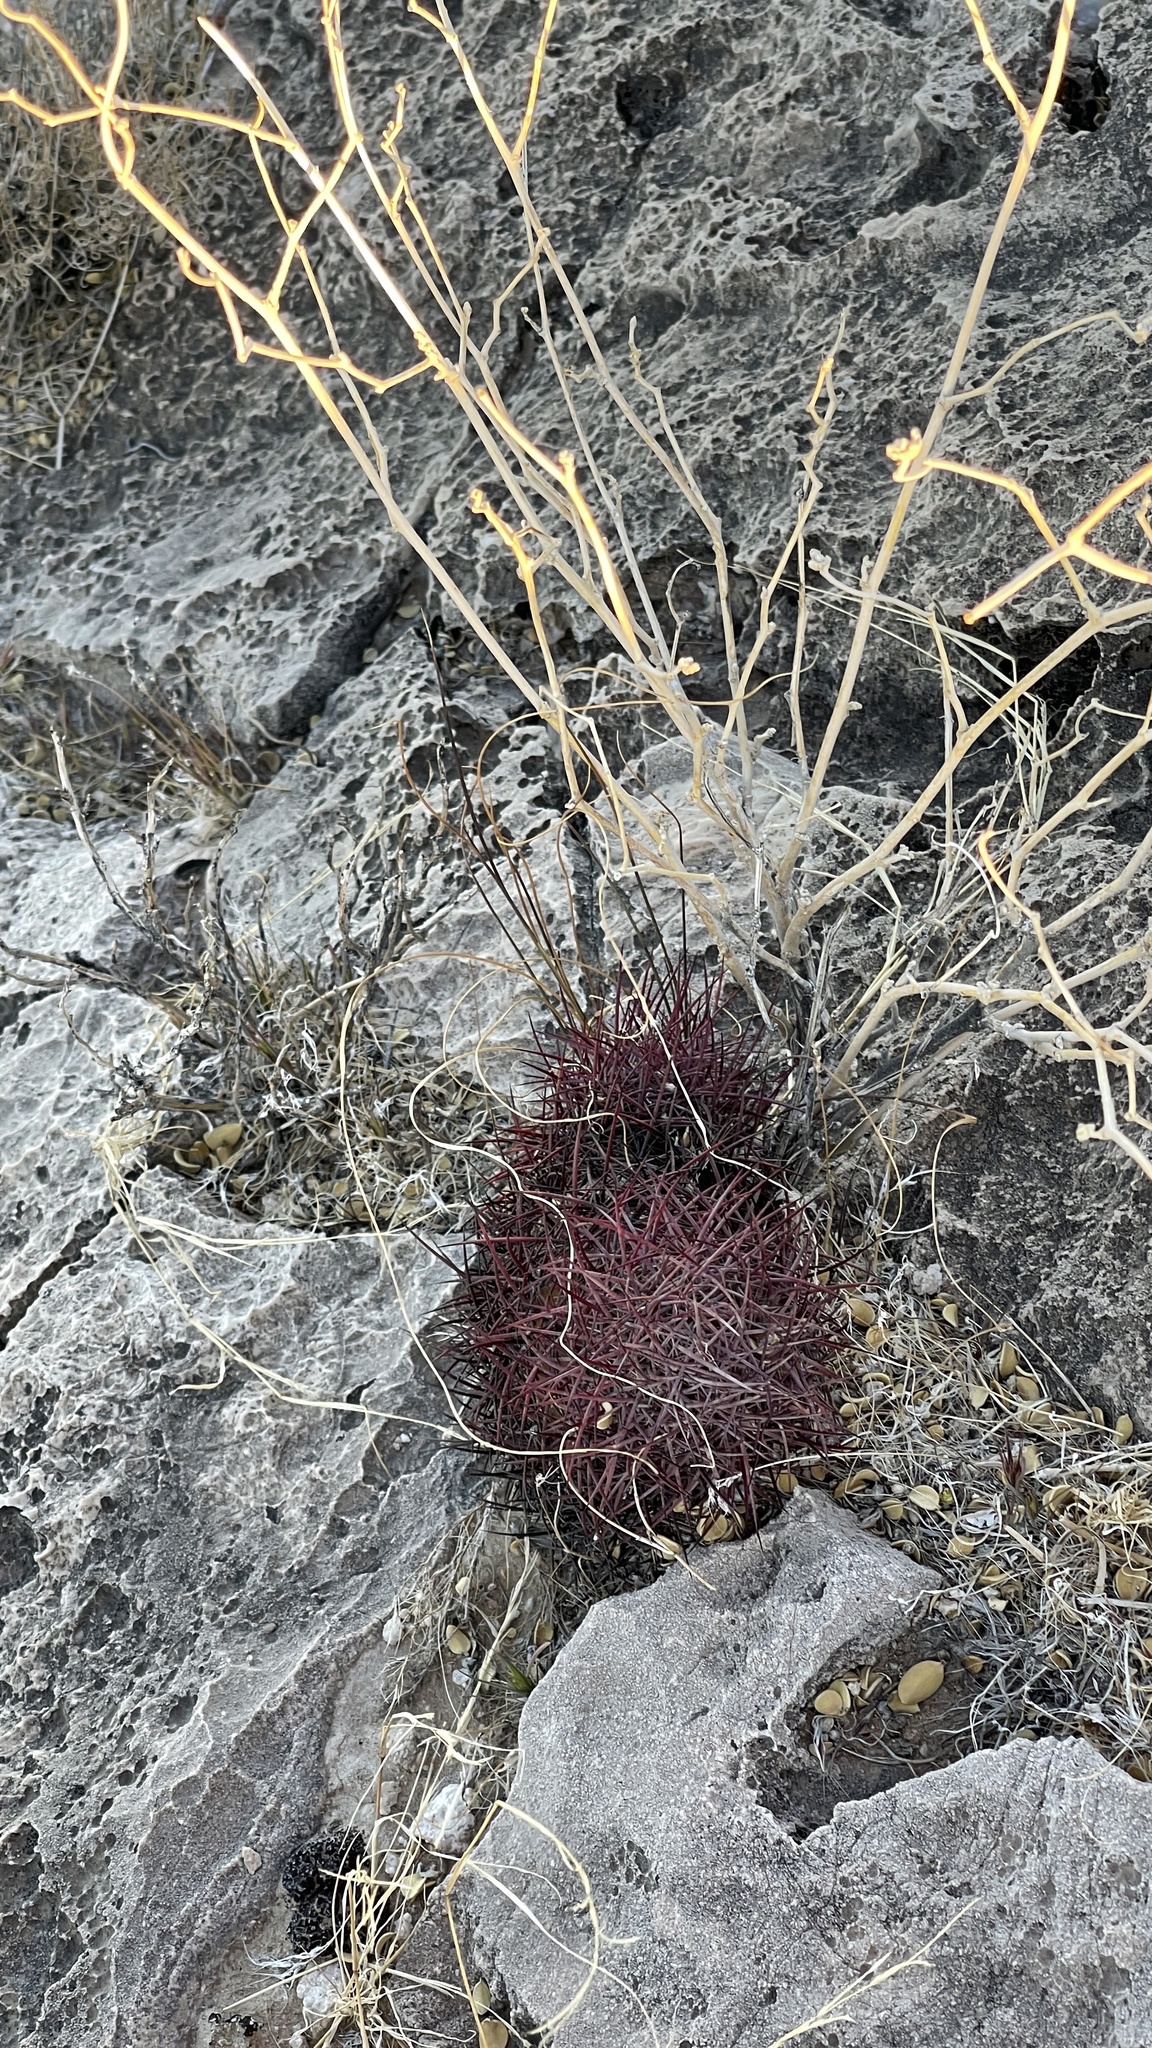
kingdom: Plantae
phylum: Tracheophyta
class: Magnoliopsida
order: Caryophyllales
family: Cactaceae
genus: Sclerocactus
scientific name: Sclerocactus johnsonii
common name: Eight-spine fishhook cactus
